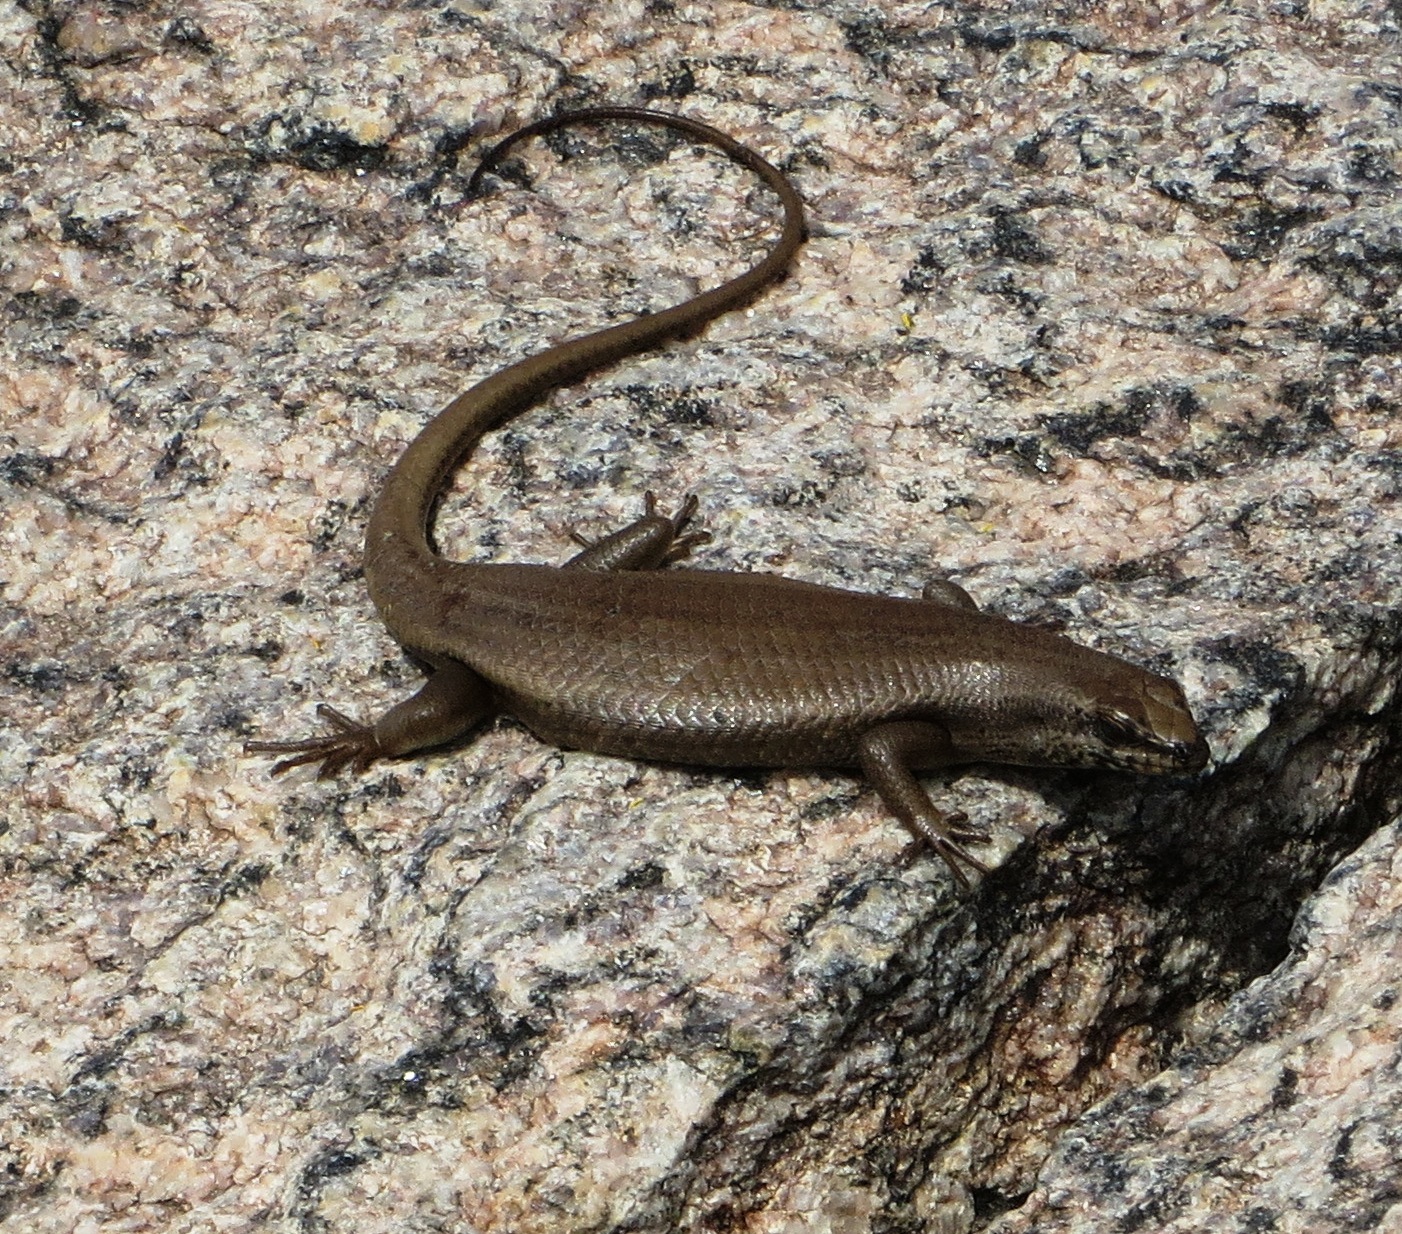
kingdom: Animalia
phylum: Chordata
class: Squamata
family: Scincidae
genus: Trachylepis
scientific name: Trachylepis sulcata
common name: Western rock skink
